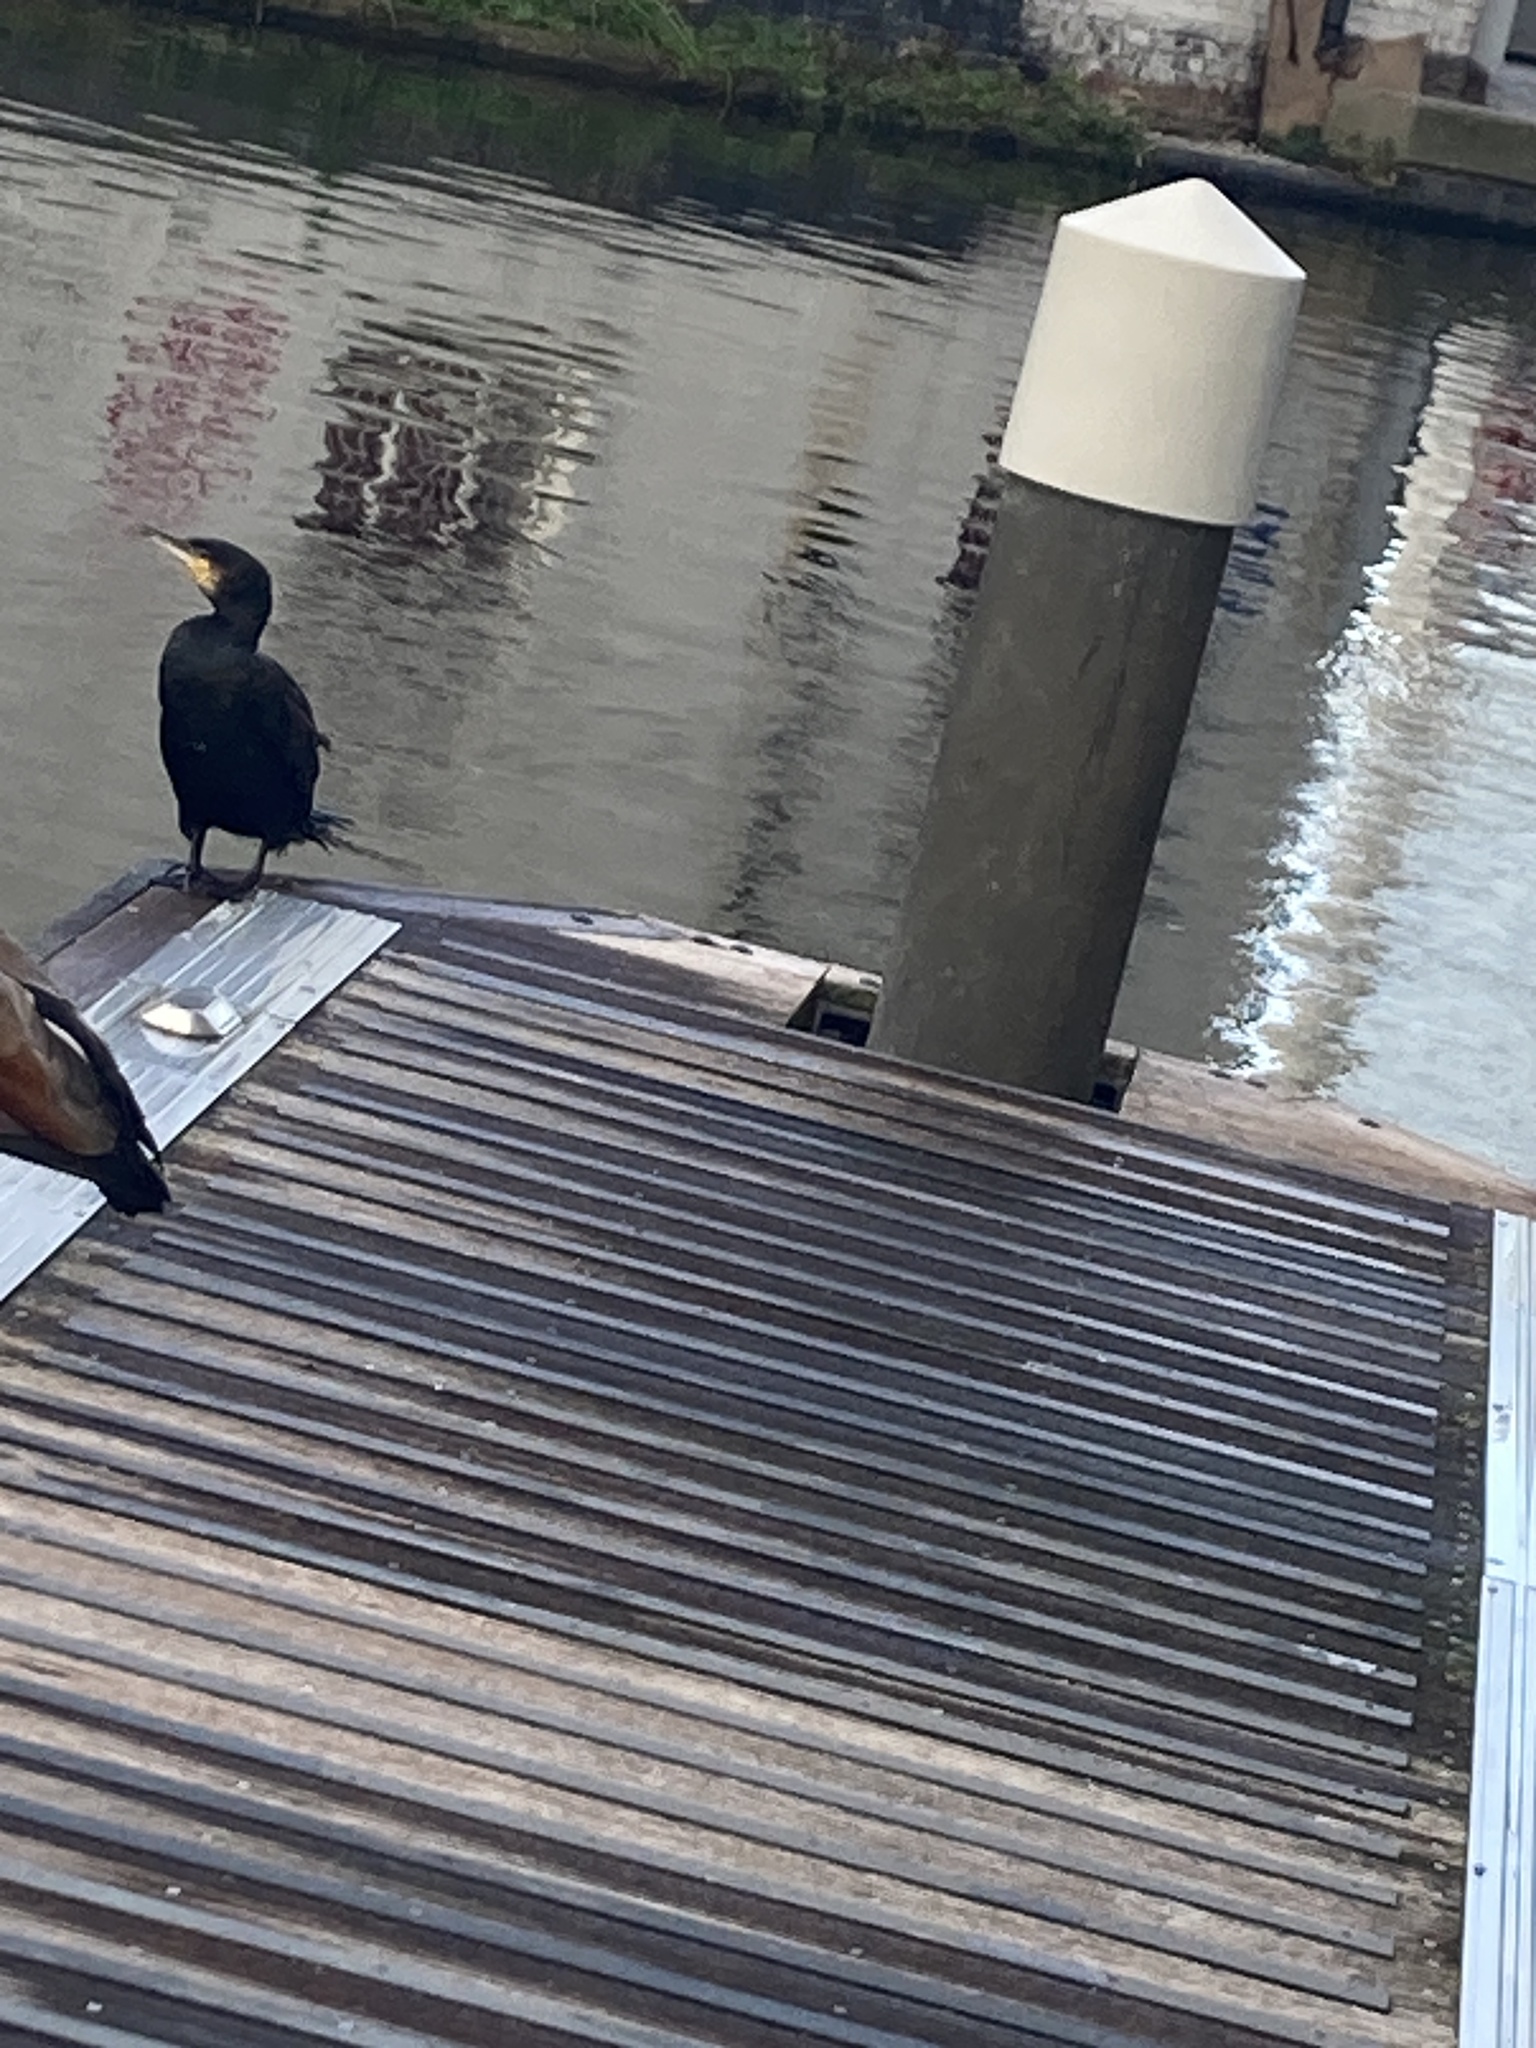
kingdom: Animalia
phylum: Chordata
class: Aves
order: Suliformes
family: Phalacrocoracidae
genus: Phalacrocorax
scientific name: Phalacrocorax carbo
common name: Great cormorant
